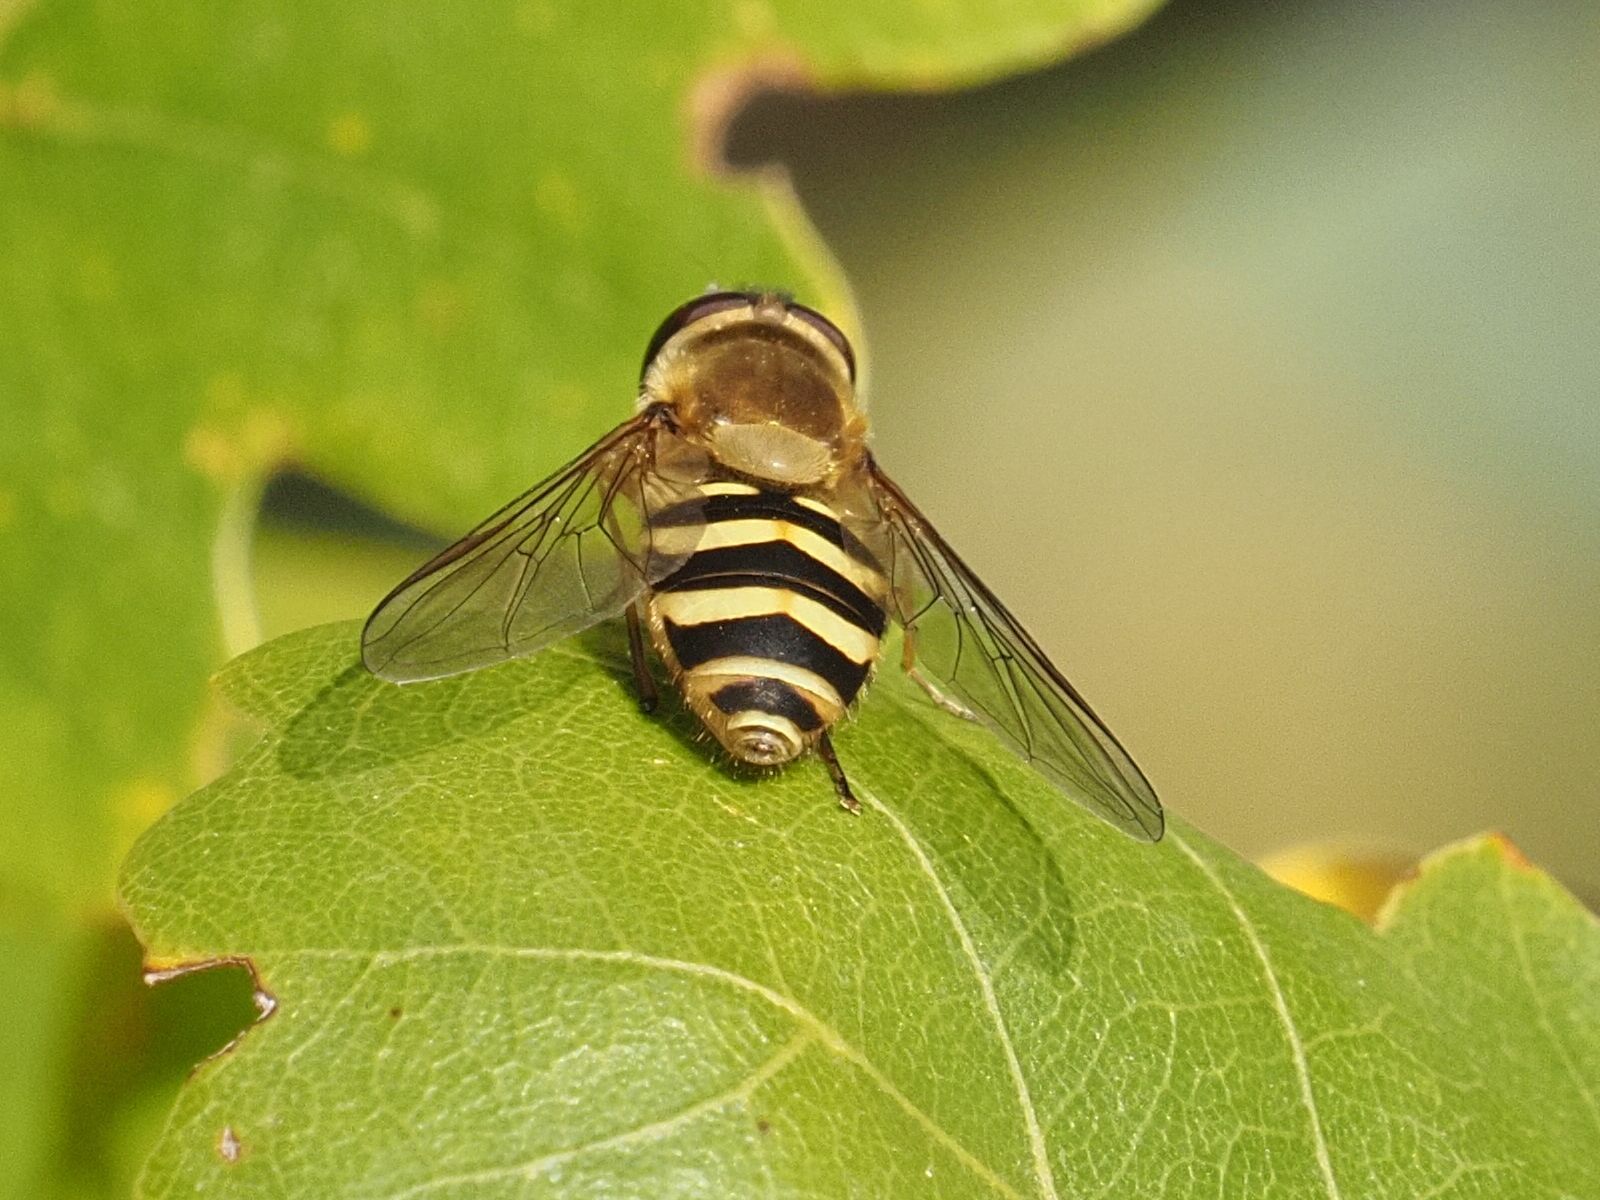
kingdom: Animalia
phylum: Arthropoda
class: Insecta
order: Diptera
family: Syrphidae
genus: Syrphus
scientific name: Syrphus
